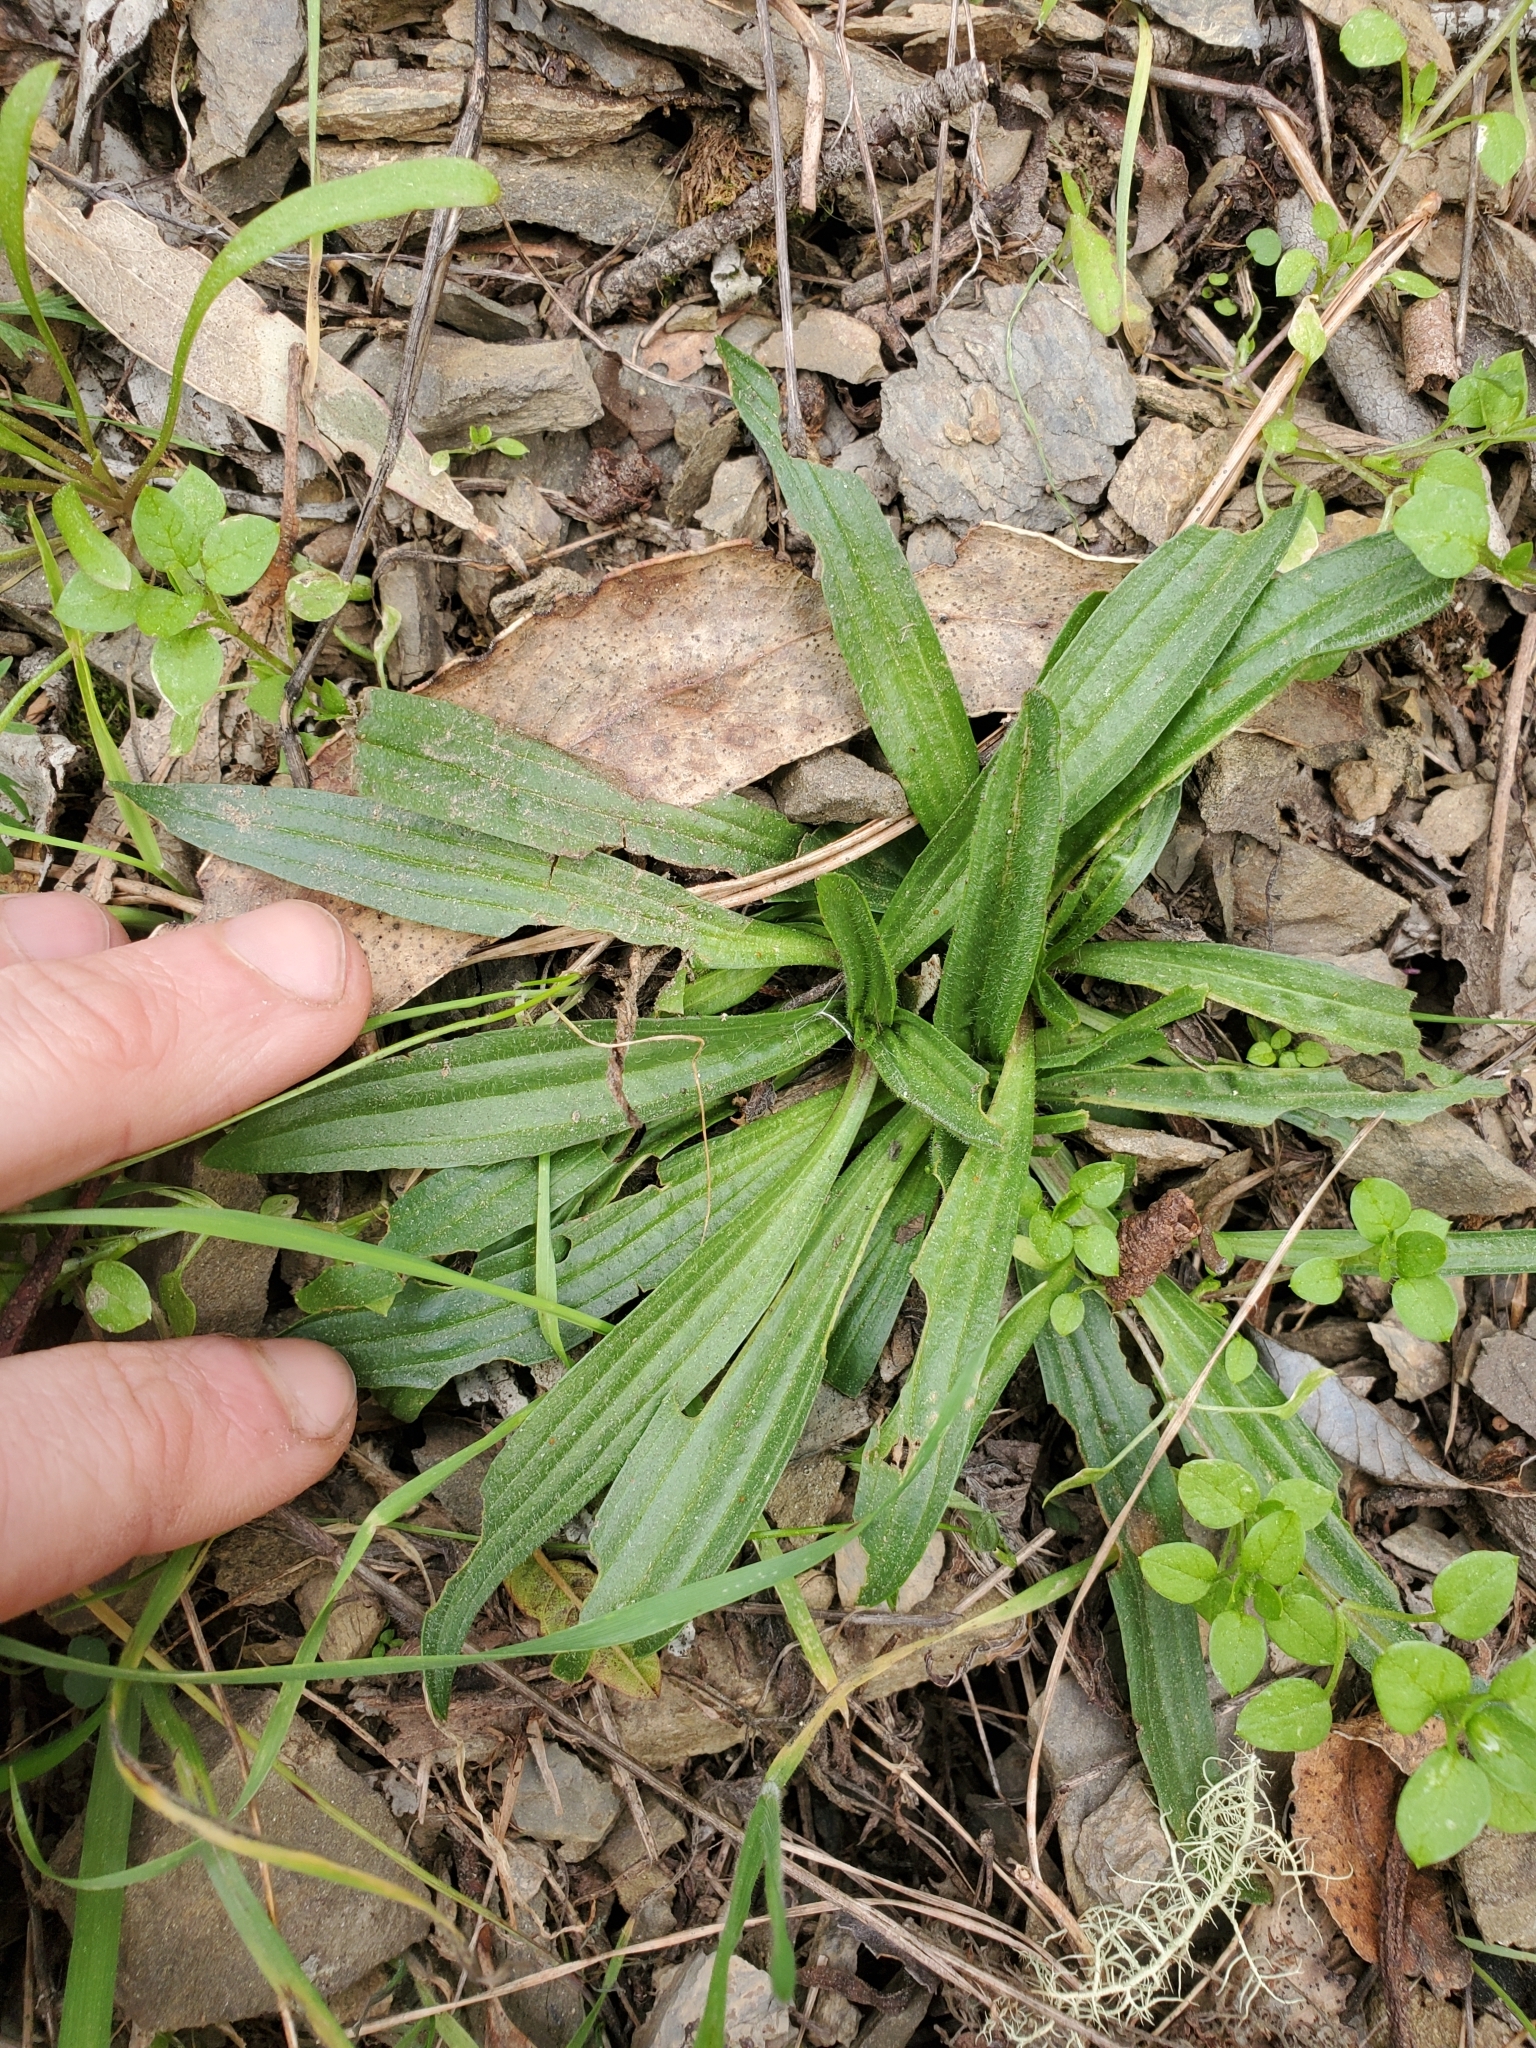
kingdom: Plantae
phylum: Tracheophyta
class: Magnoliopsida
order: Lamiales
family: Plantaginaceae
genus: Plantago
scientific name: Plantago lanceolata
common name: Ribwort plantain
